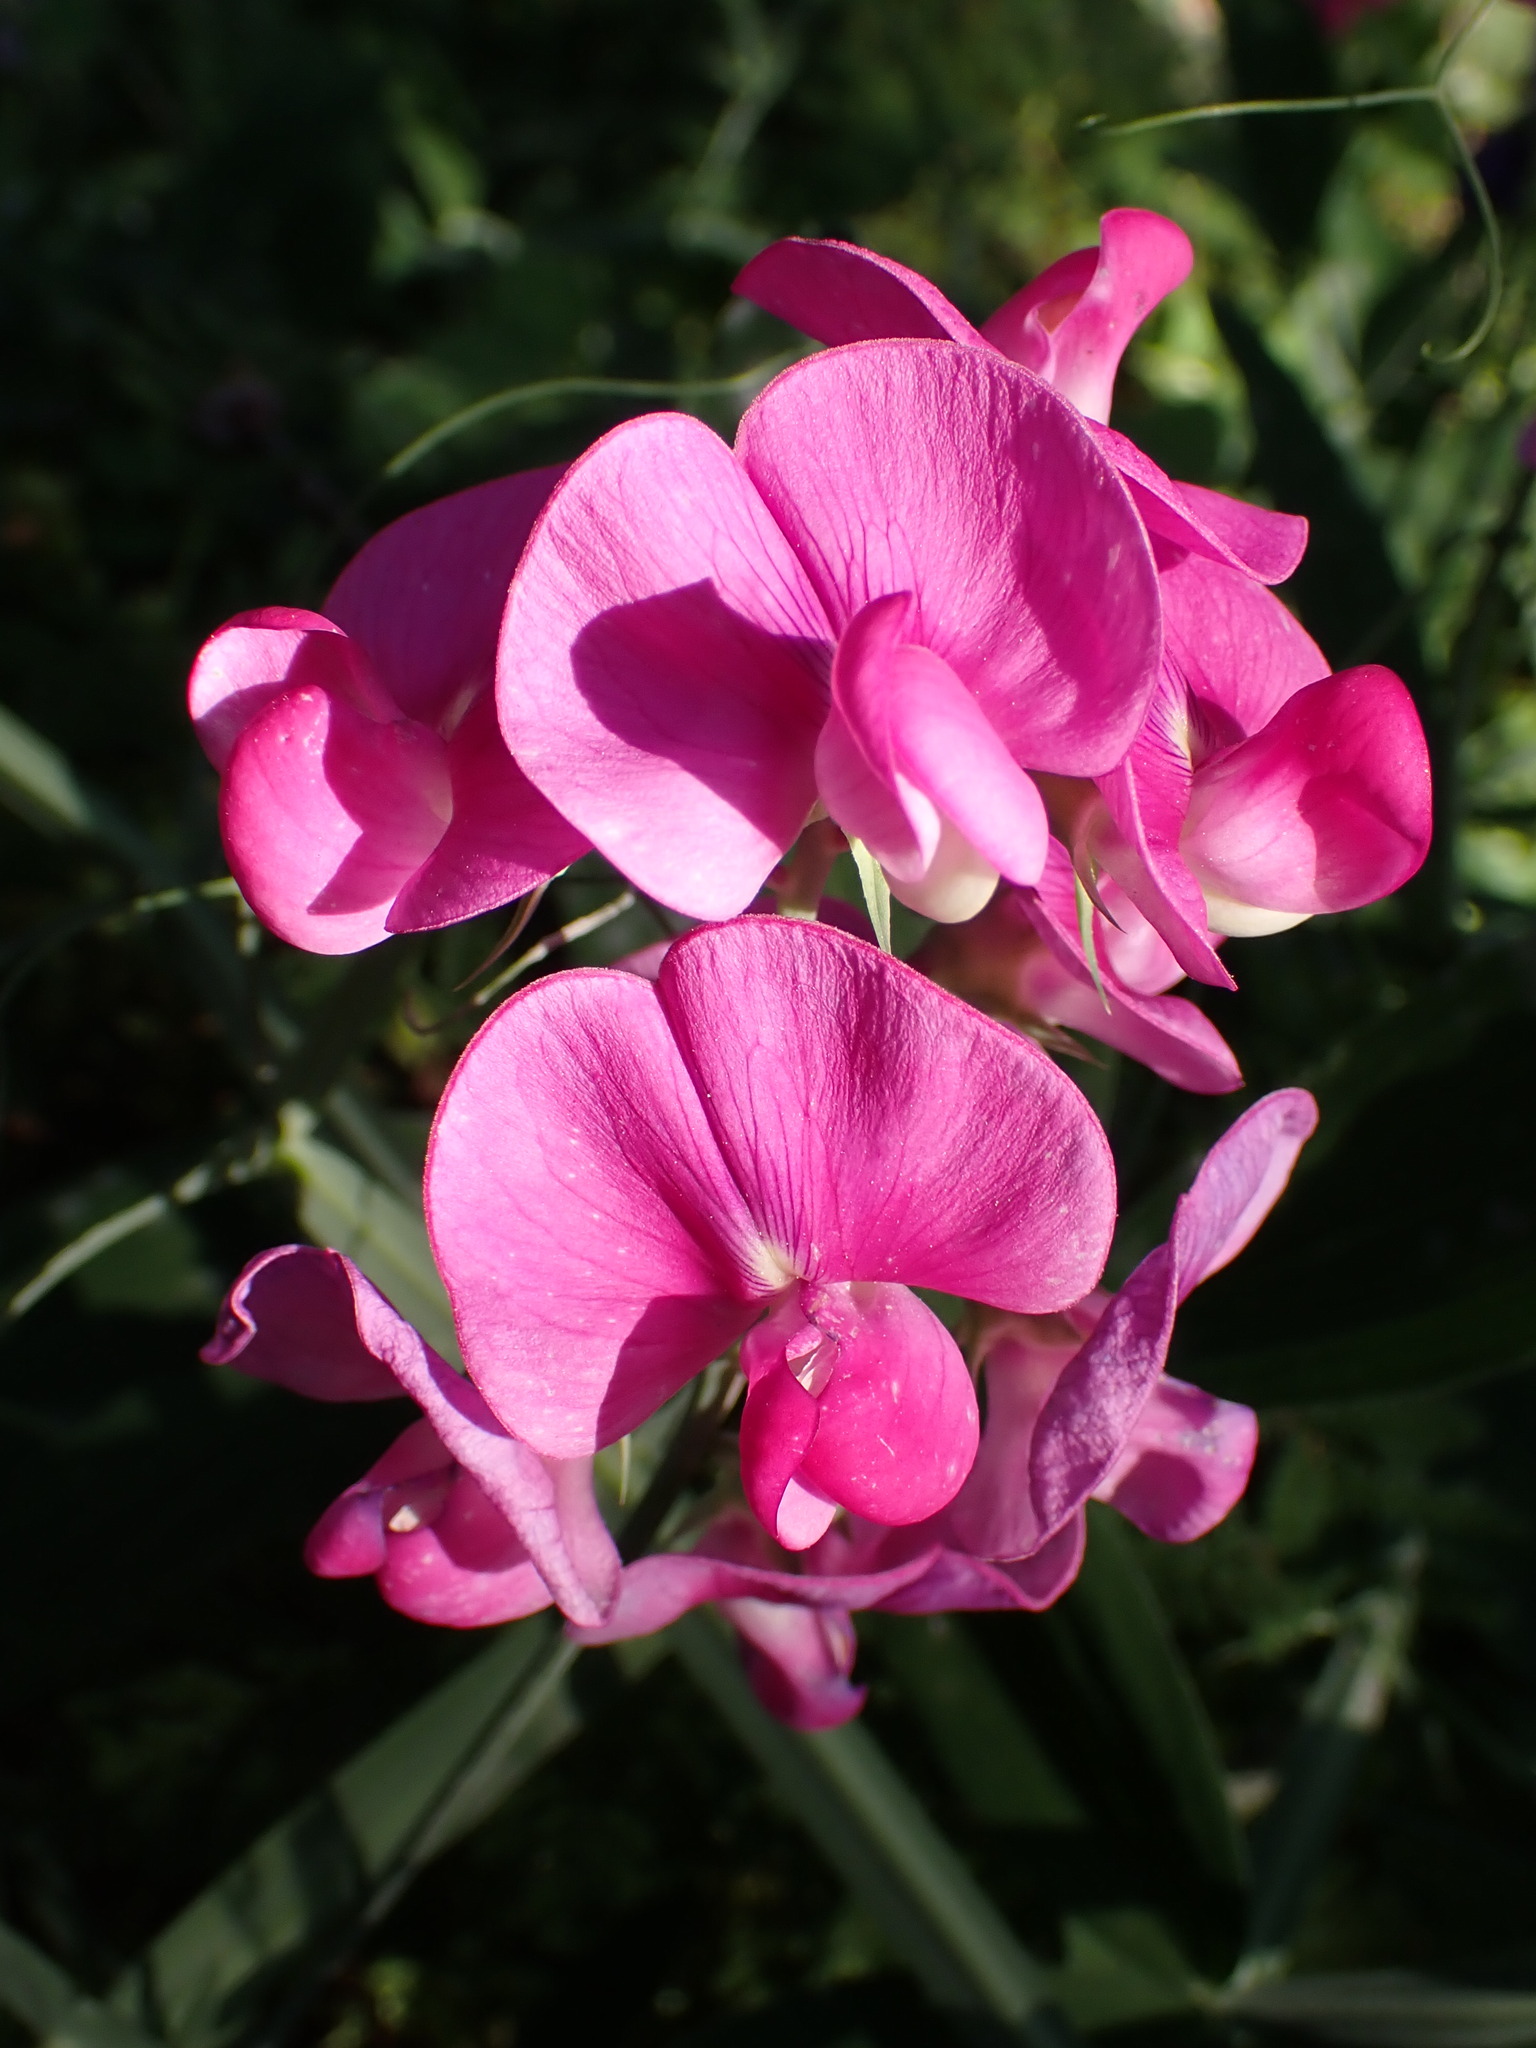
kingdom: Plantae
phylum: Tracheophyta
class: Magnoliopsida
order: Fabales
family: Fabaceae
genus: Lathyrus
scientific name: Lathyrus latifolius
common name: Perennial pea
